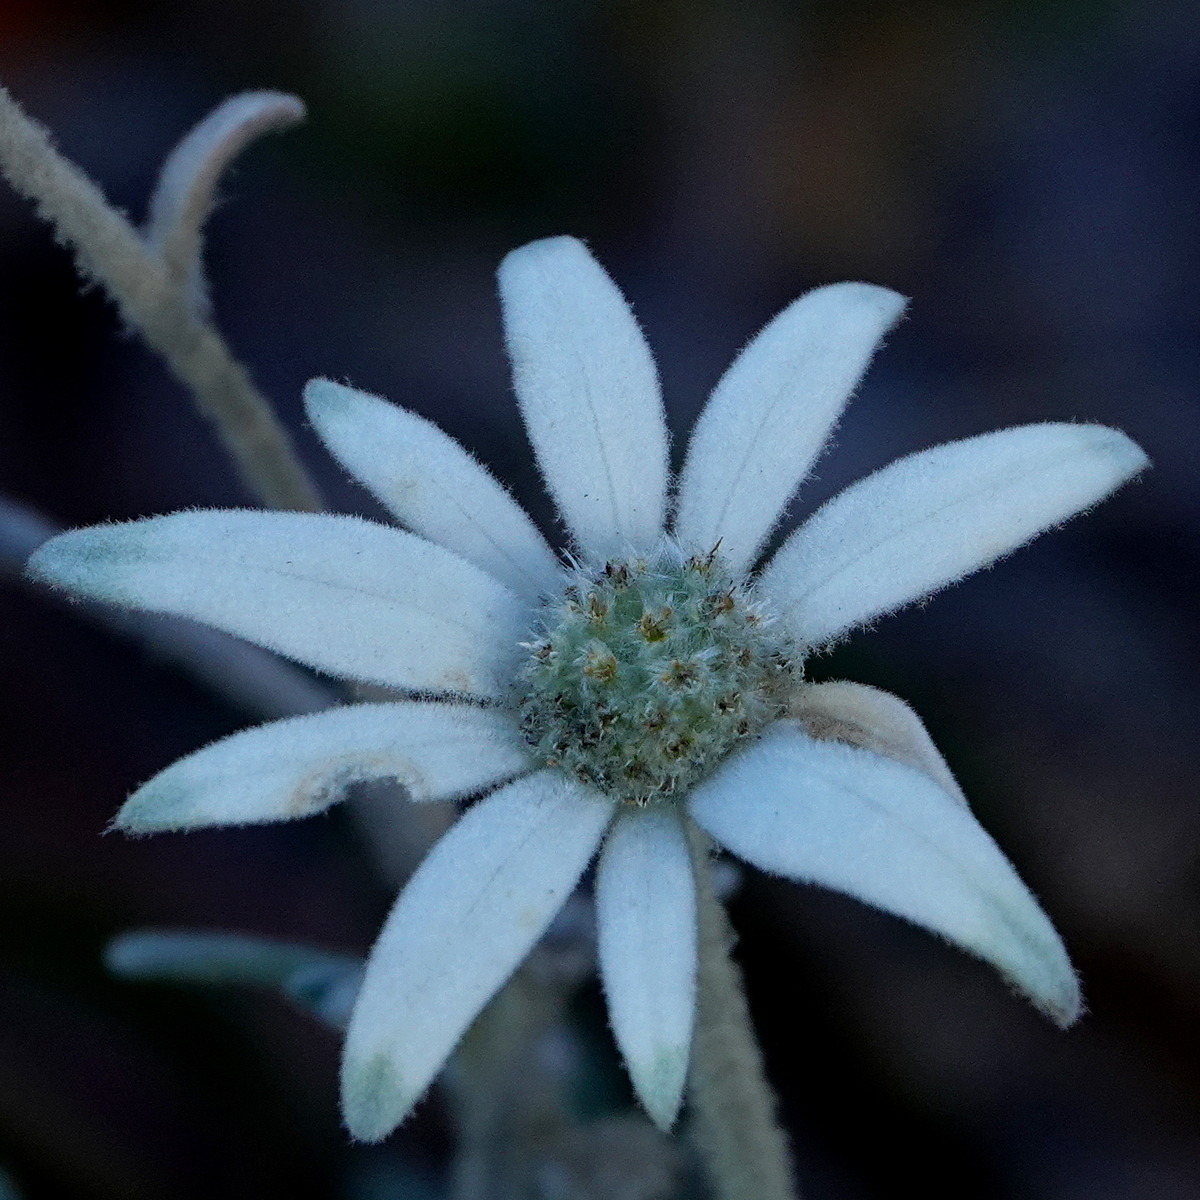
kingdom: Plantae
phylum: Tracheophyta
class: Magnoliopsida
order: Apiales
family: Apiaceae
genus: Actinotus
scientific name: Actinotus helianthi
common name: Flannel-flower
